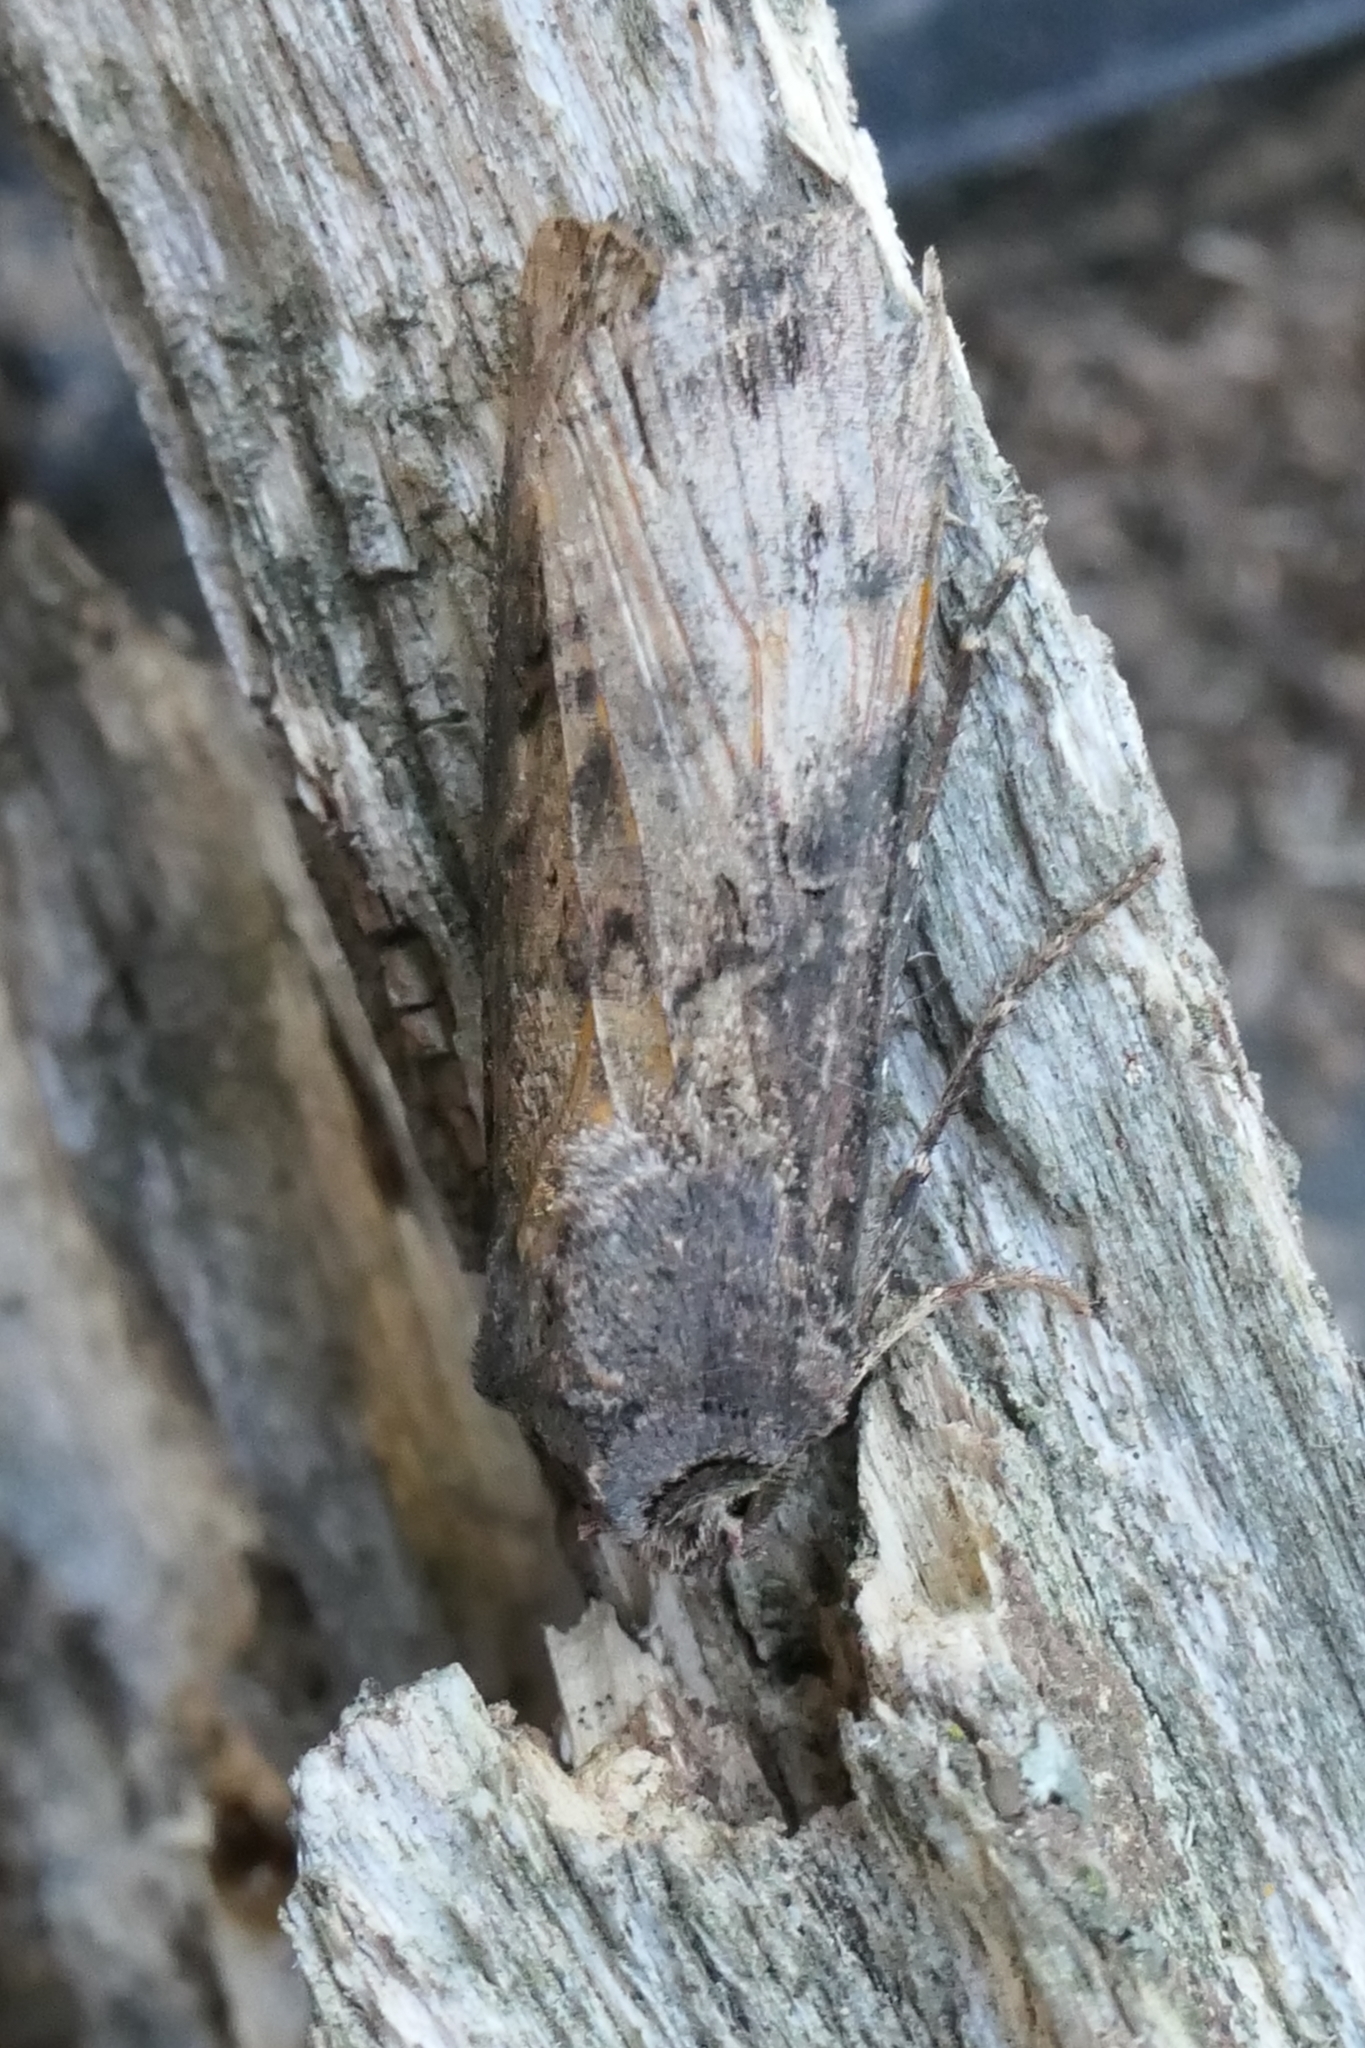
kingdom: Animalia
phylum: Arthropoda
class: Insecta
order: Lepidoptera
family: Noctuidae
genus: Agrotis
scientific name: Agrotis ipsilon
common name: Dark sword-grass
